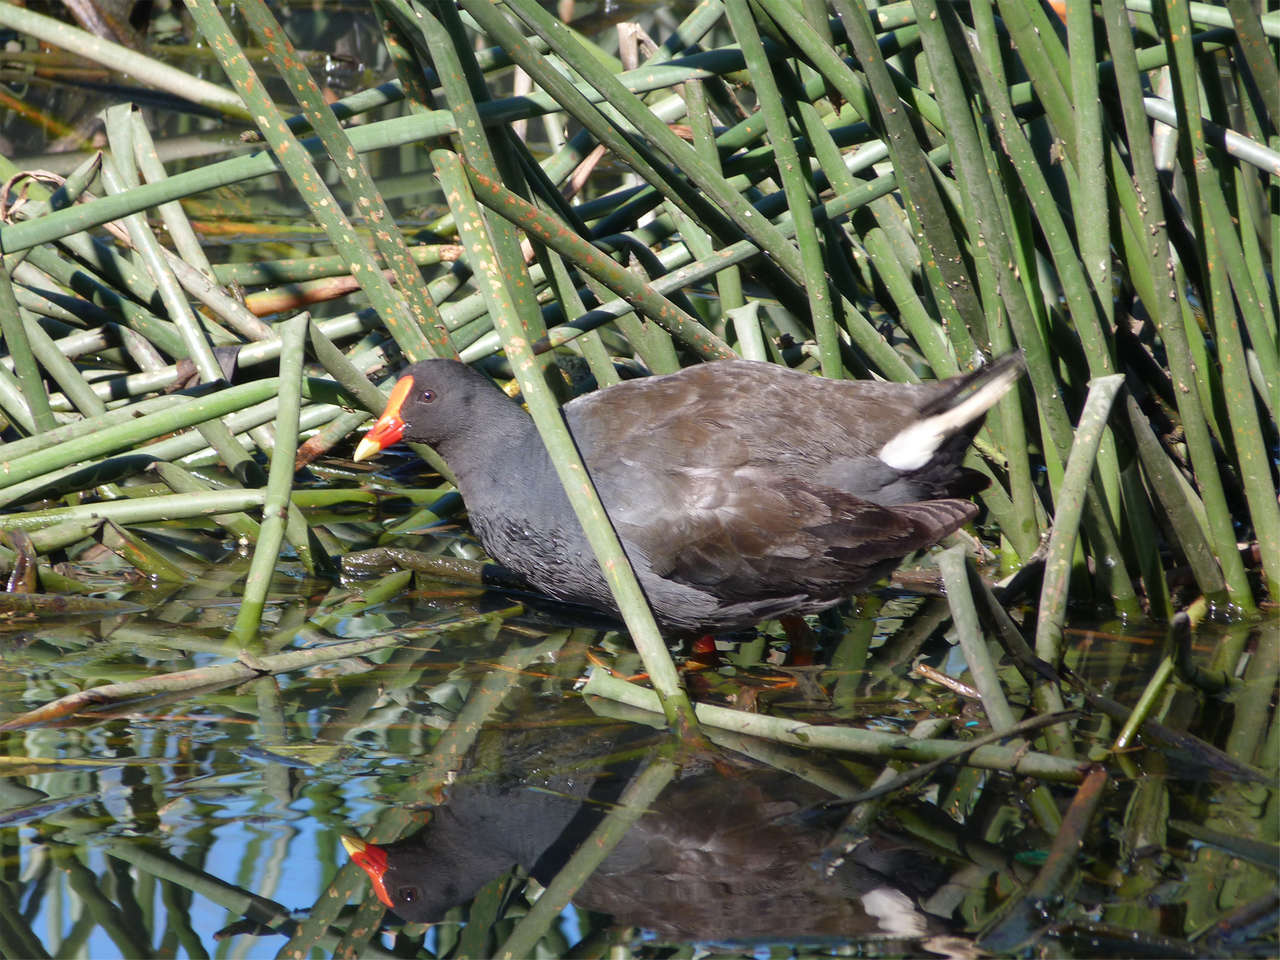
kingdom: Animalia
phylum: Chordata
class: Aves
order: Gruiformes
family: Rallidae
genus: Gallinula
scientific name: Gallinula tenebrosa
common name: Dusky moorhen
